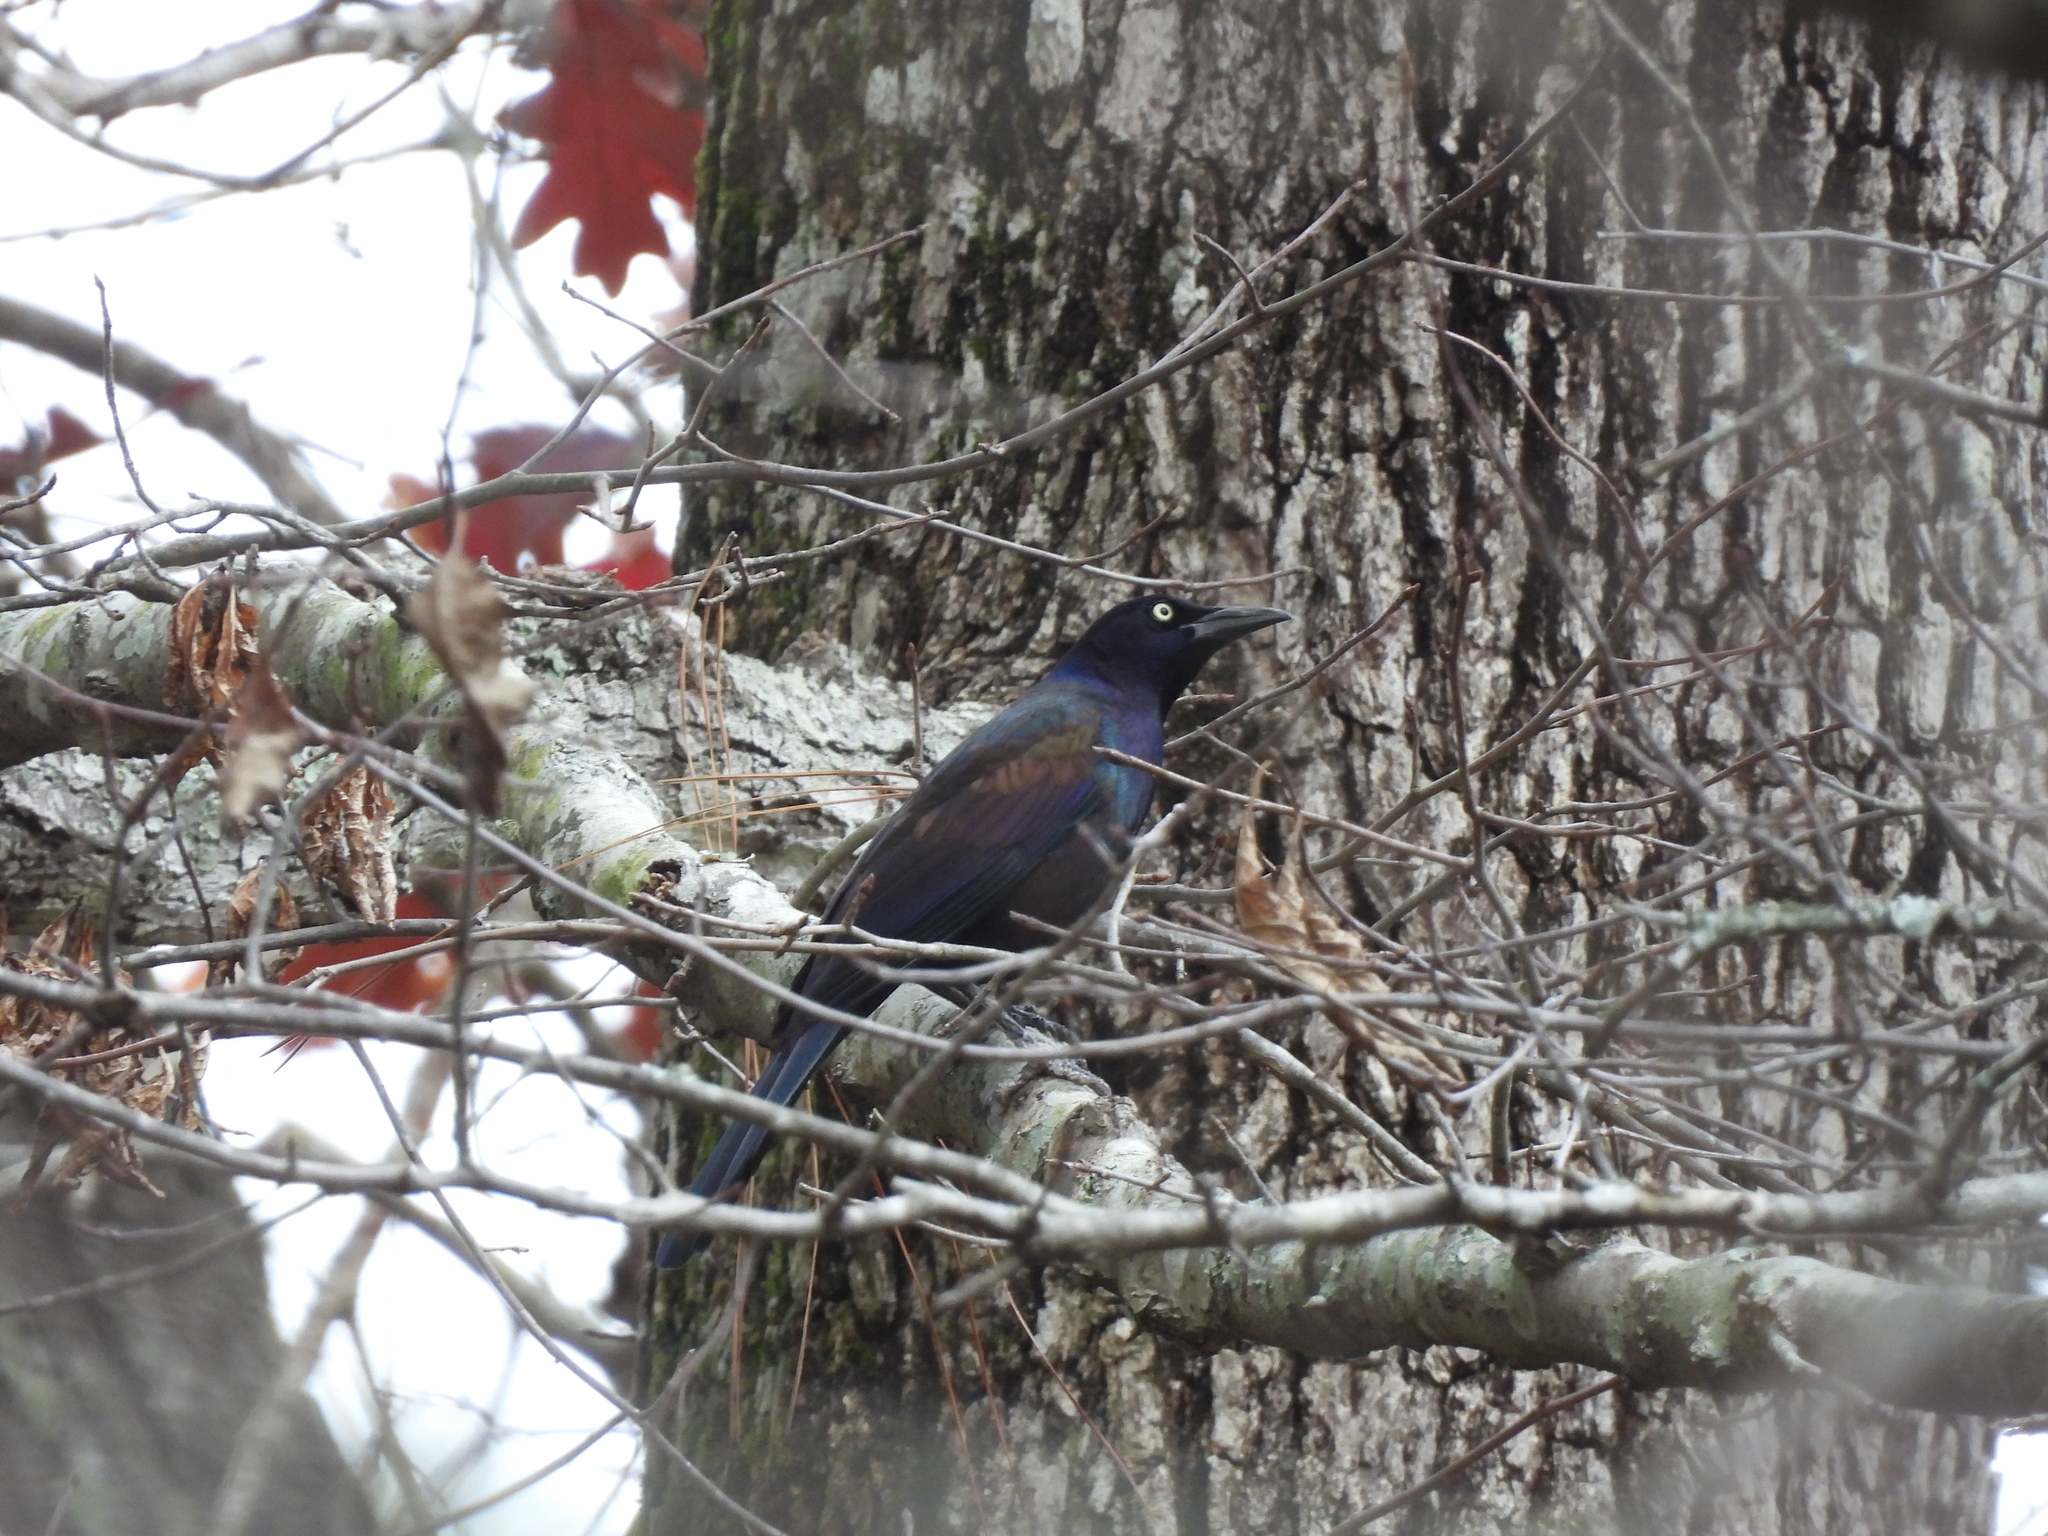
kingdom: Animalia
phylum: Chordata
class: Aves
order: Passeriformes
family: Icteridae
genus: Quiscalus
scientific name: Quiscalus quiscula
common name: Common grackle
